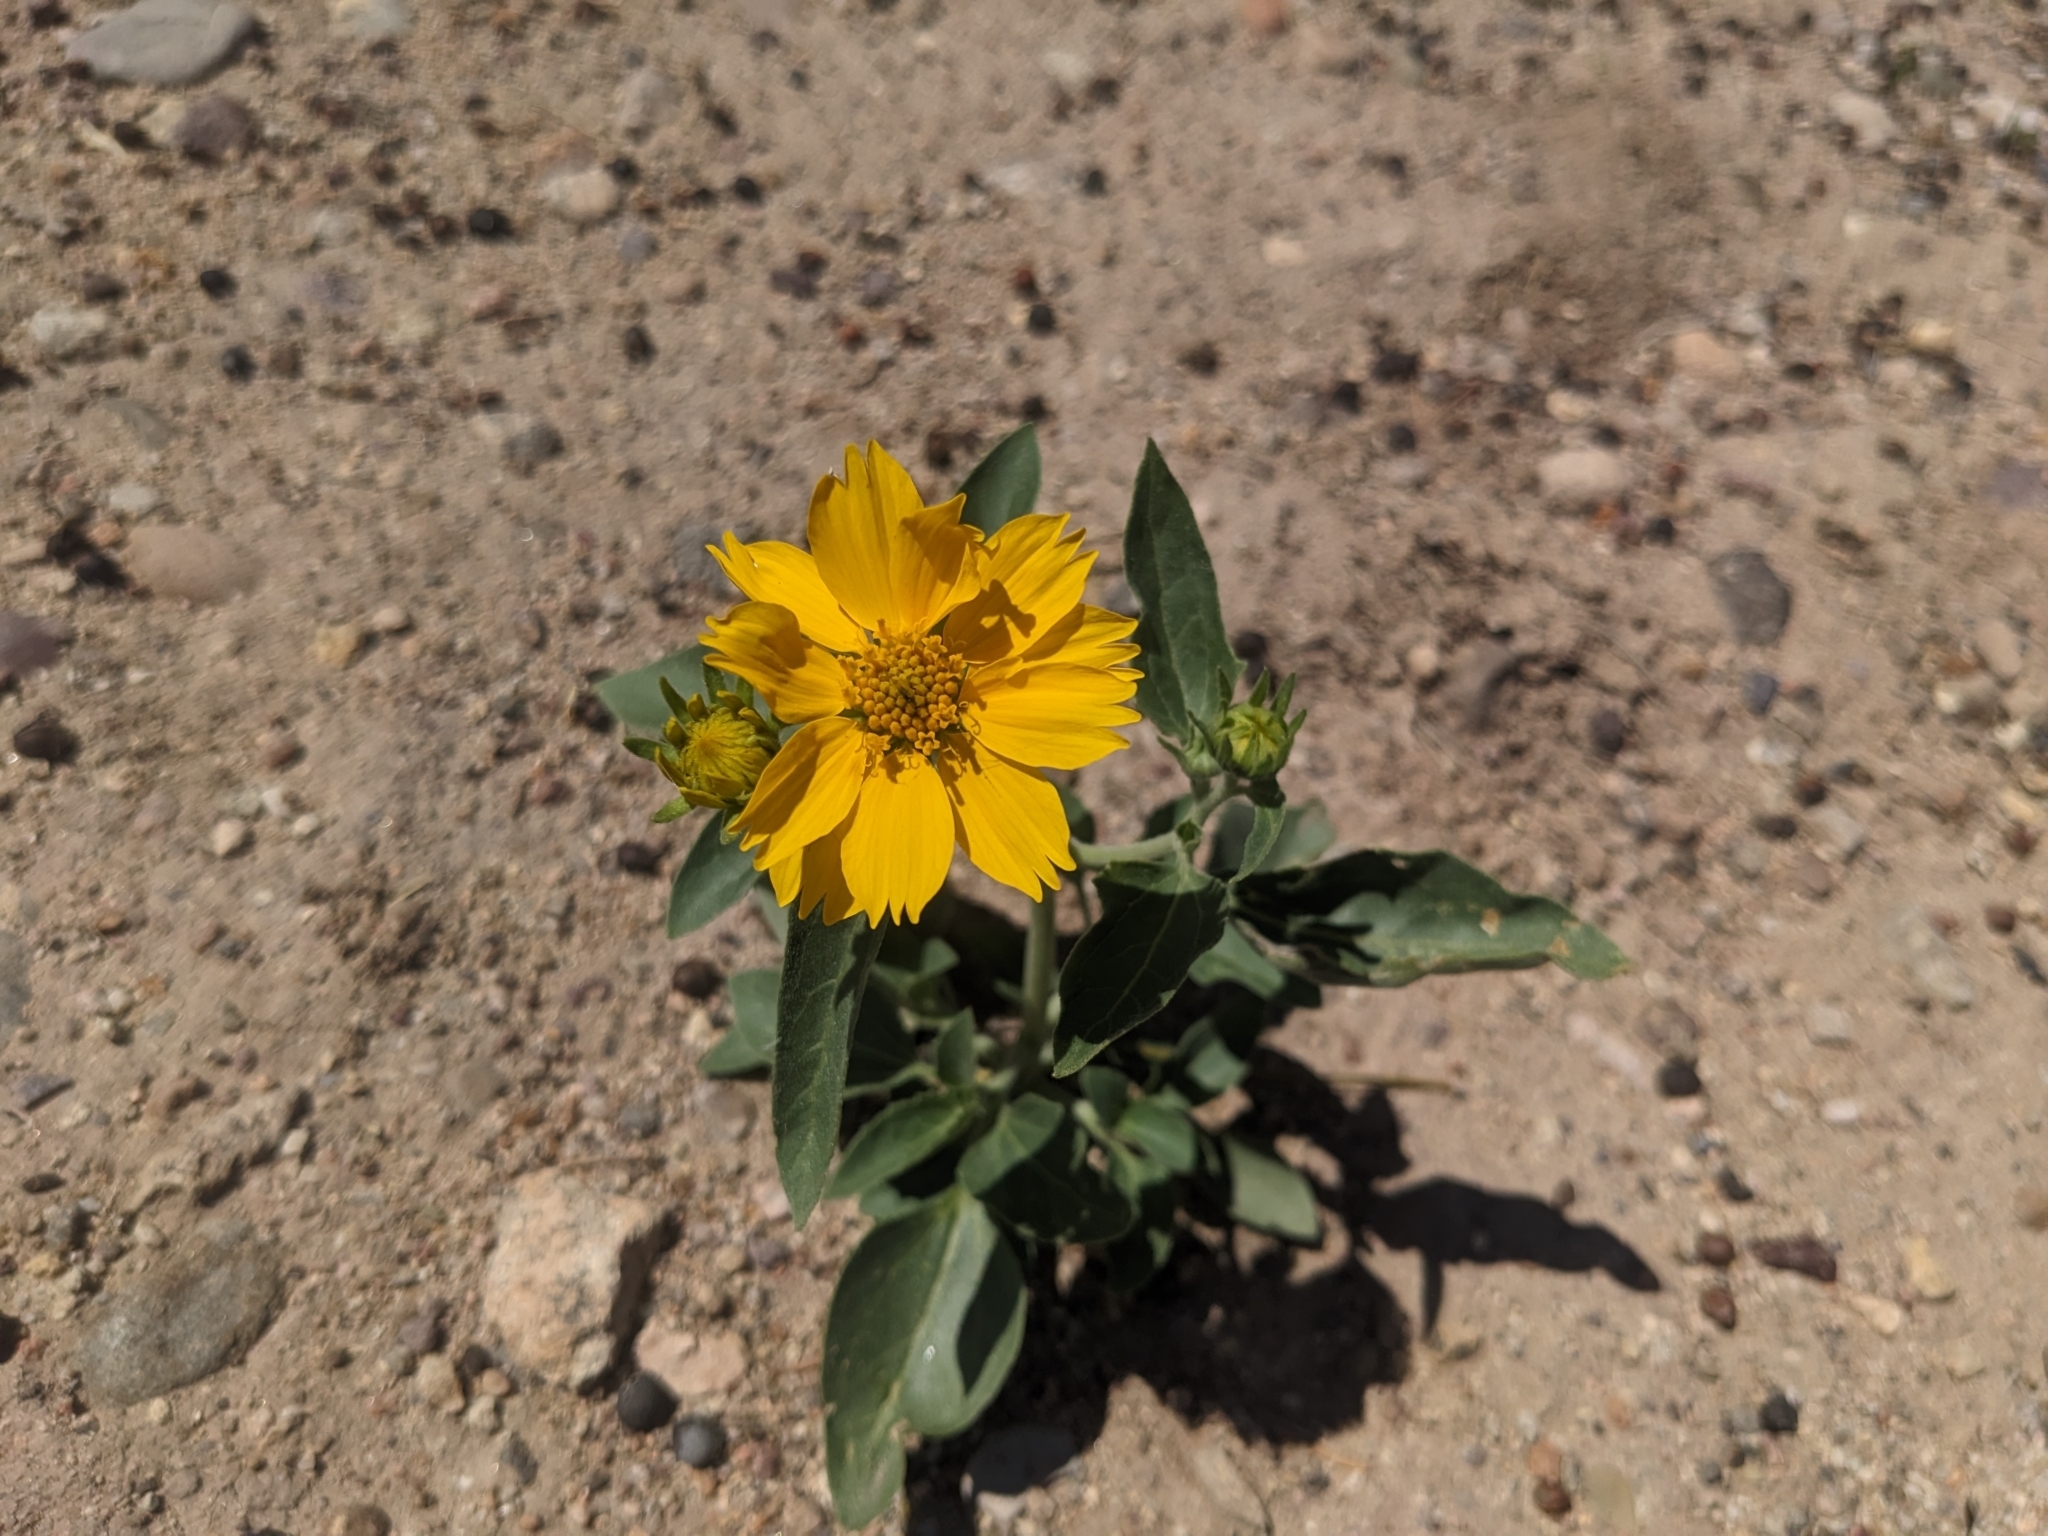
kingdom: Plantae
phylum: Tracheophyta
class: Magnoliopsida
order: Asterales
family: Asteraceae
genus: Verbesina
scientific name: Verbesina encelioides
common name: Golden crownbeard
